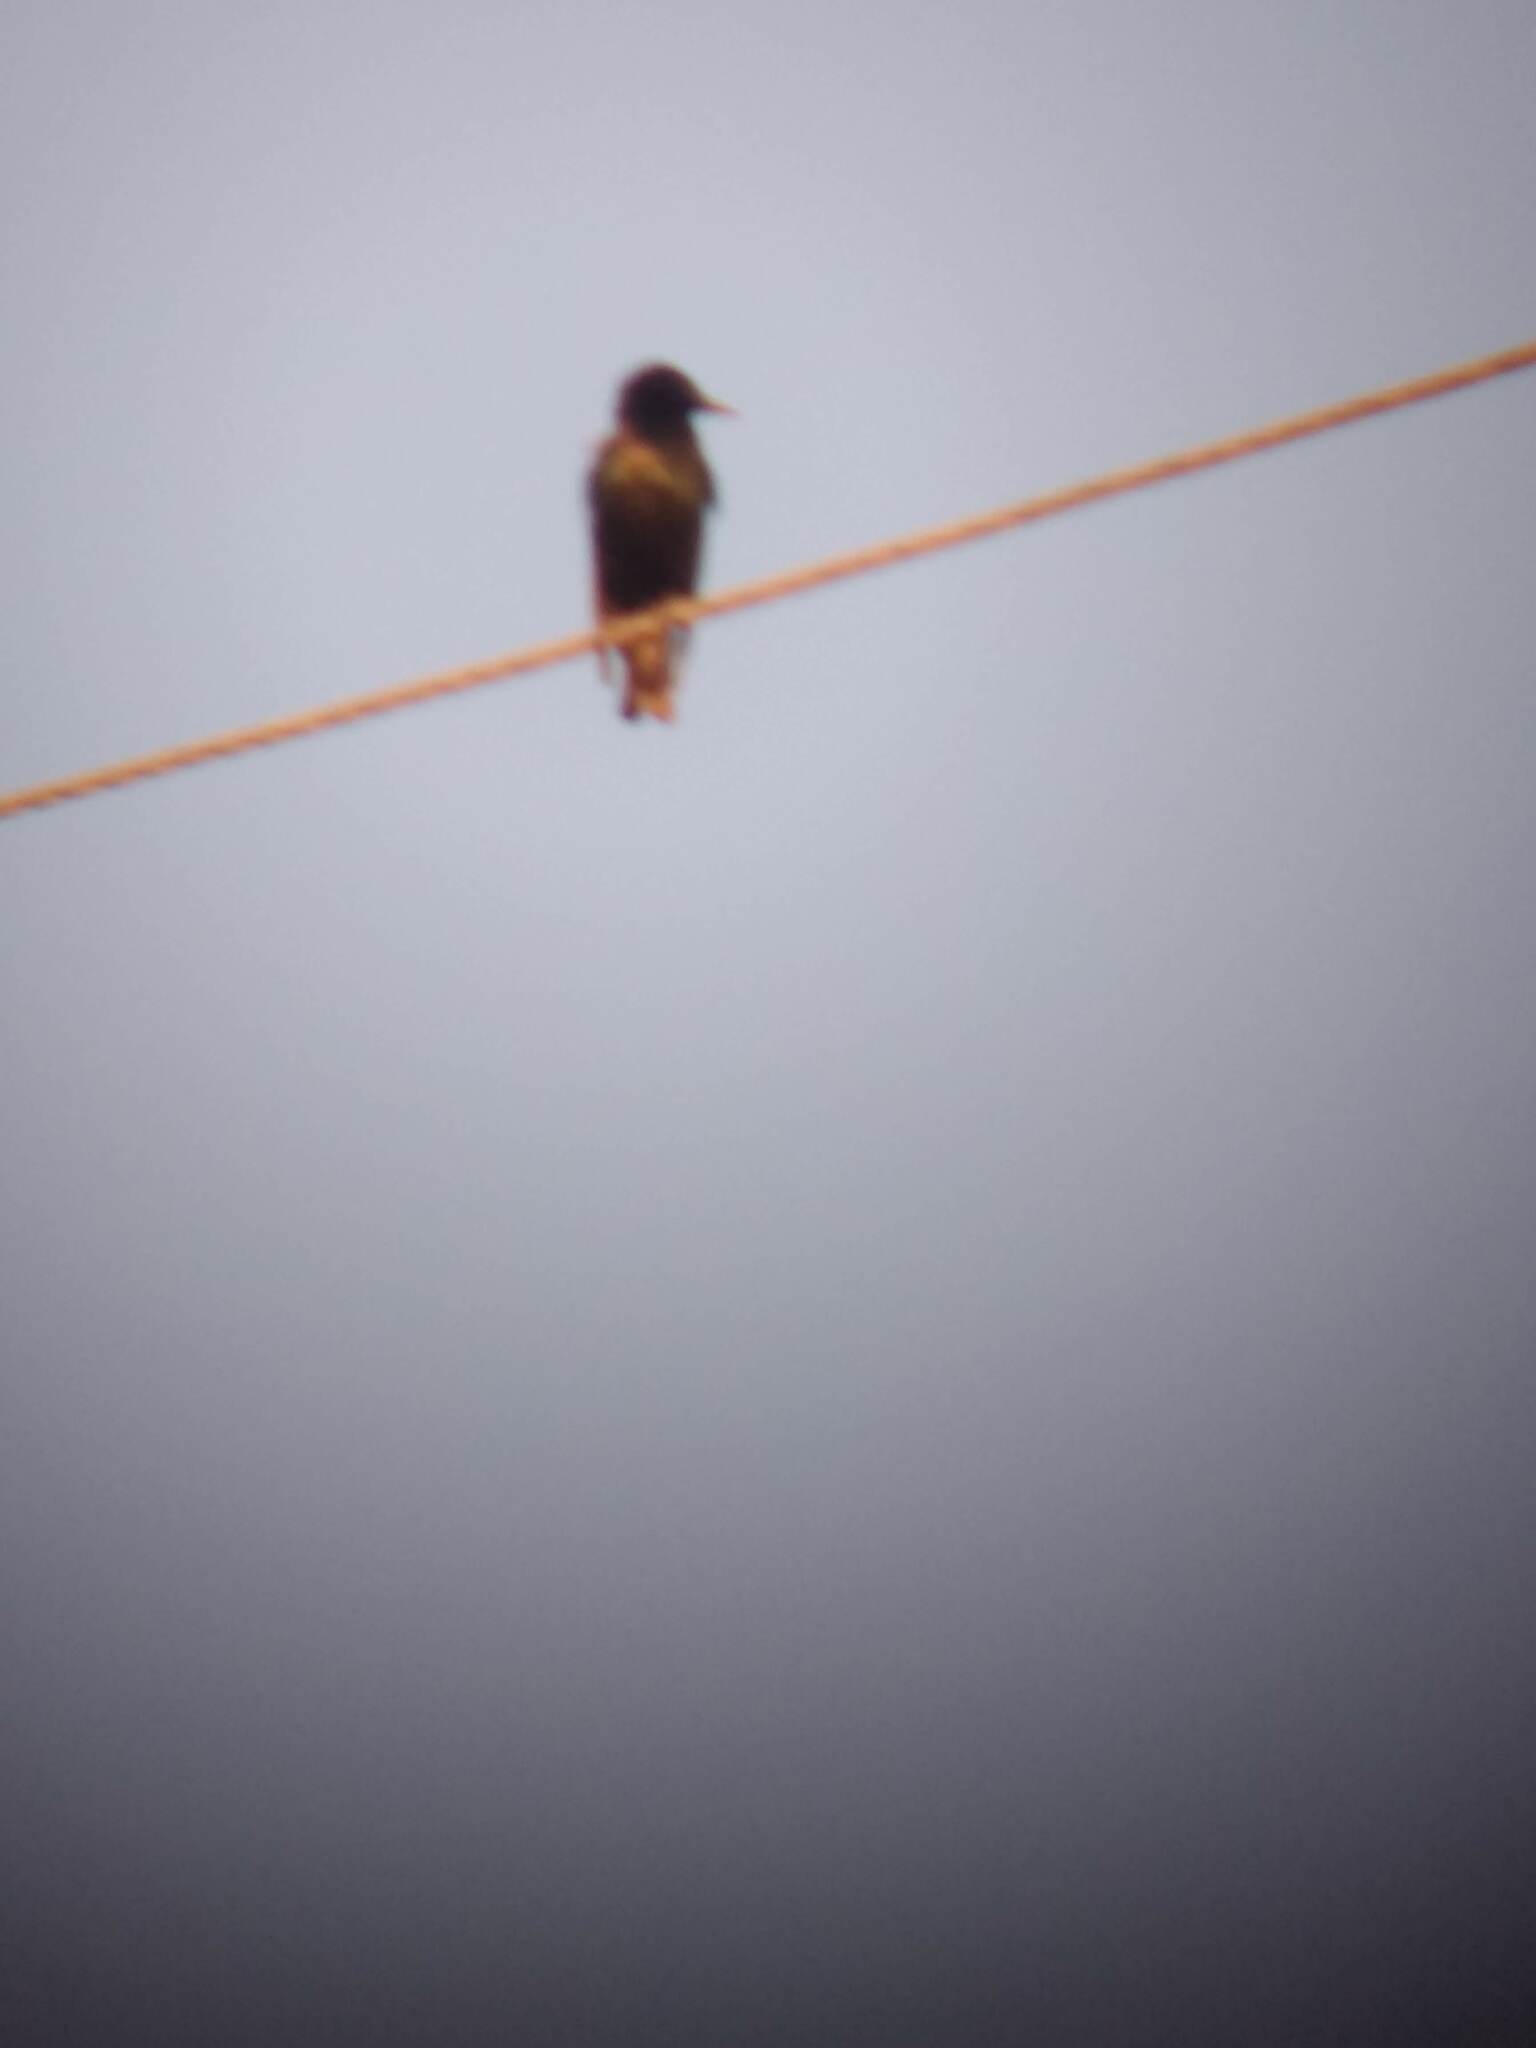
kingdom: Animalia
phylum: Chordata
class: Aves
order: Passeriformes
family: Sturnidae
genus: Sturnus
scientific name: Sturnus vulgaris
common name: Common starling
